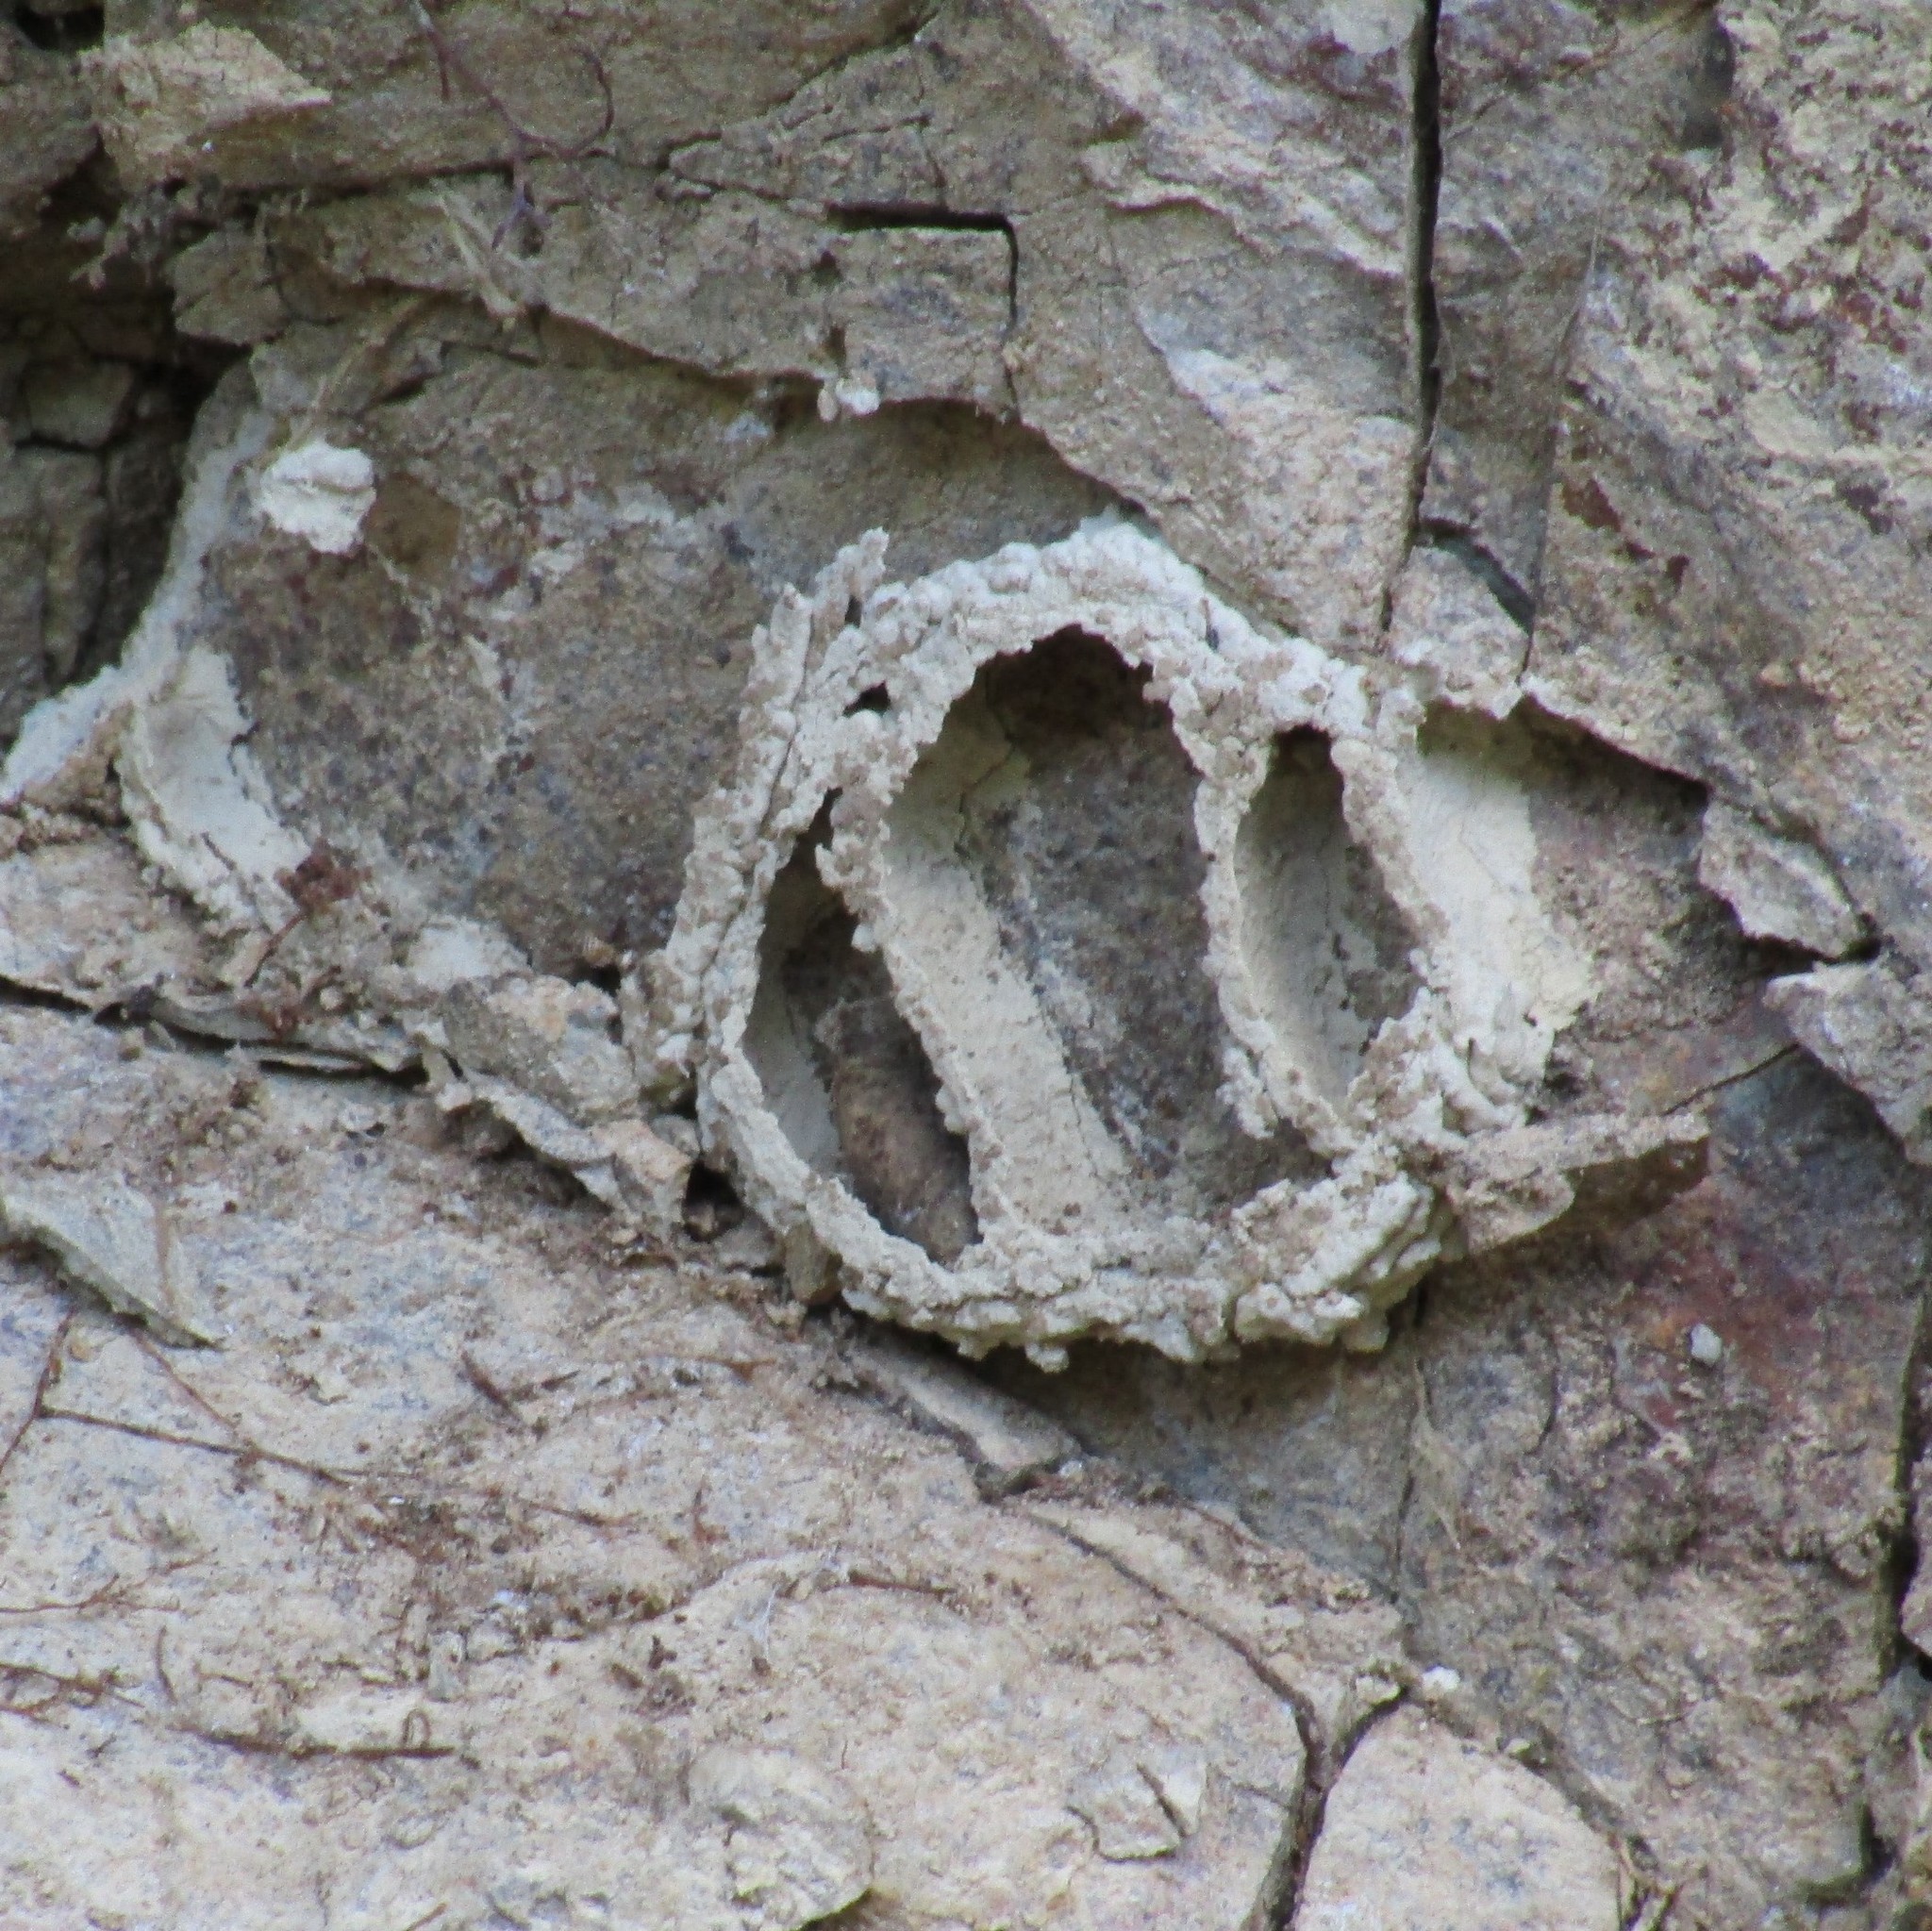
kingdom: Animalia
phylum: Arthropoda
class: Insecta
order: Hymenoptera
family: Crabronidae
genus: Pison
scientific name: Pison spinolae
